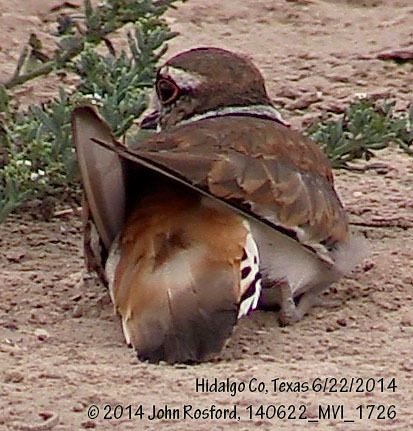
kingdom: Animalia
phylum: Chordata
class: Aves
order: Charadriiformes
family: Charadriidae
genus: Charadrius
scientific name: Charadrius vociferus
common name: Killdeer
